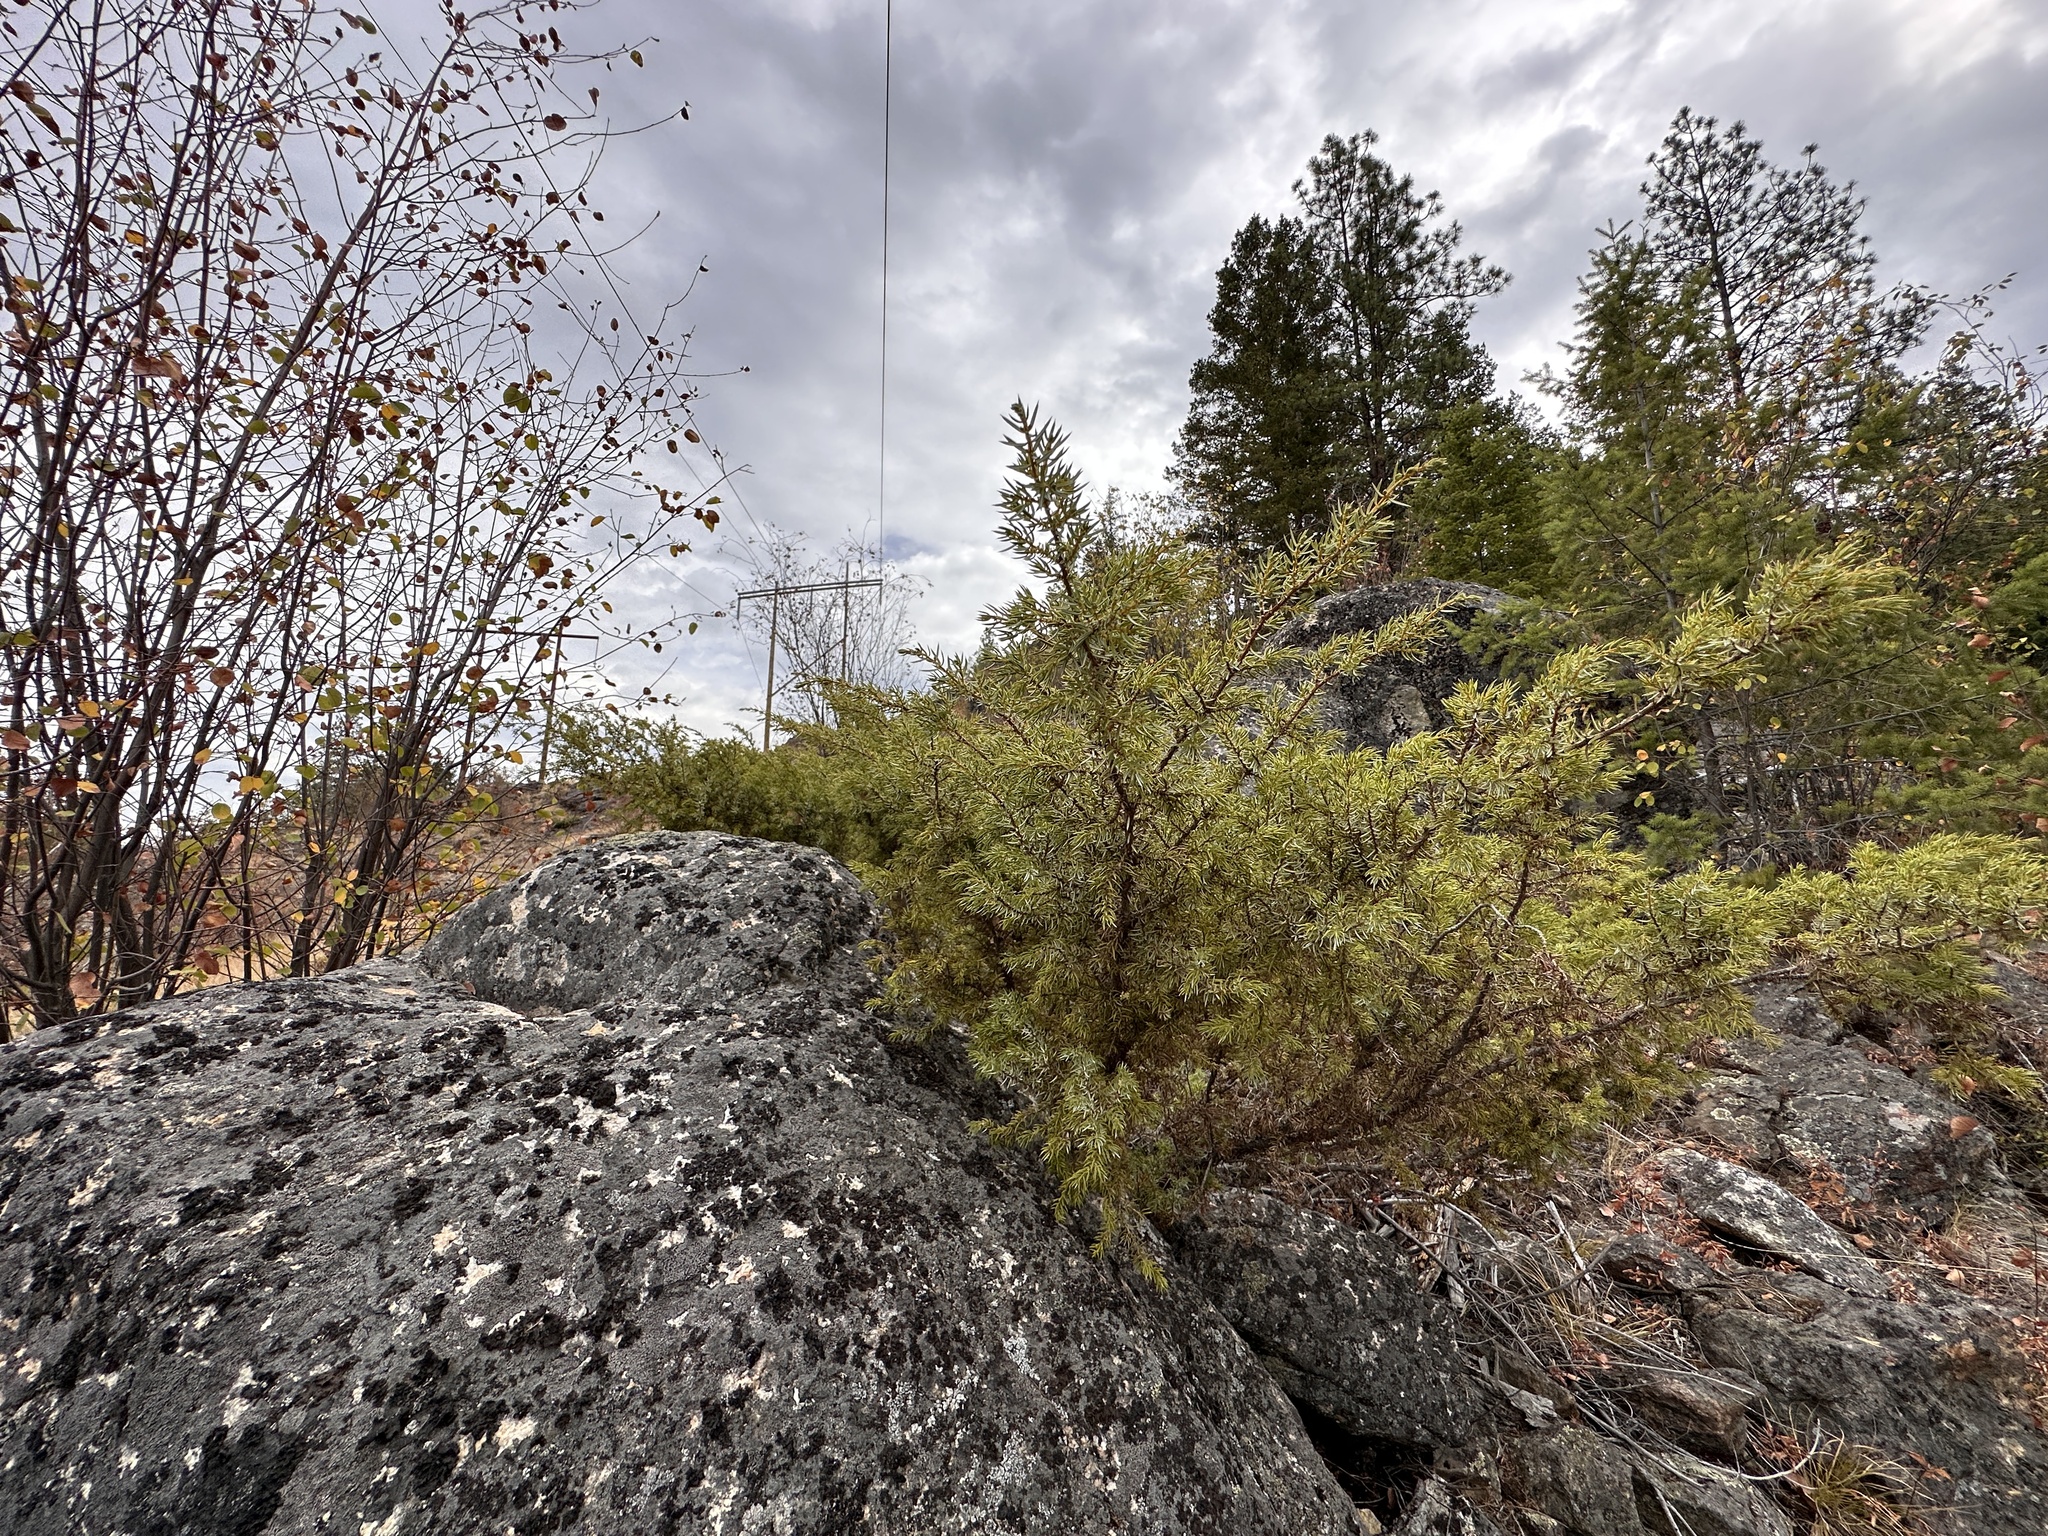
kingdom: Plantae
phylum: Tracheophyta
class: Pinopsida
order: Pinales
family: Cupressaceae
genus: Juniperus
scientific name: Juniperus communis
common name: Common juniper
